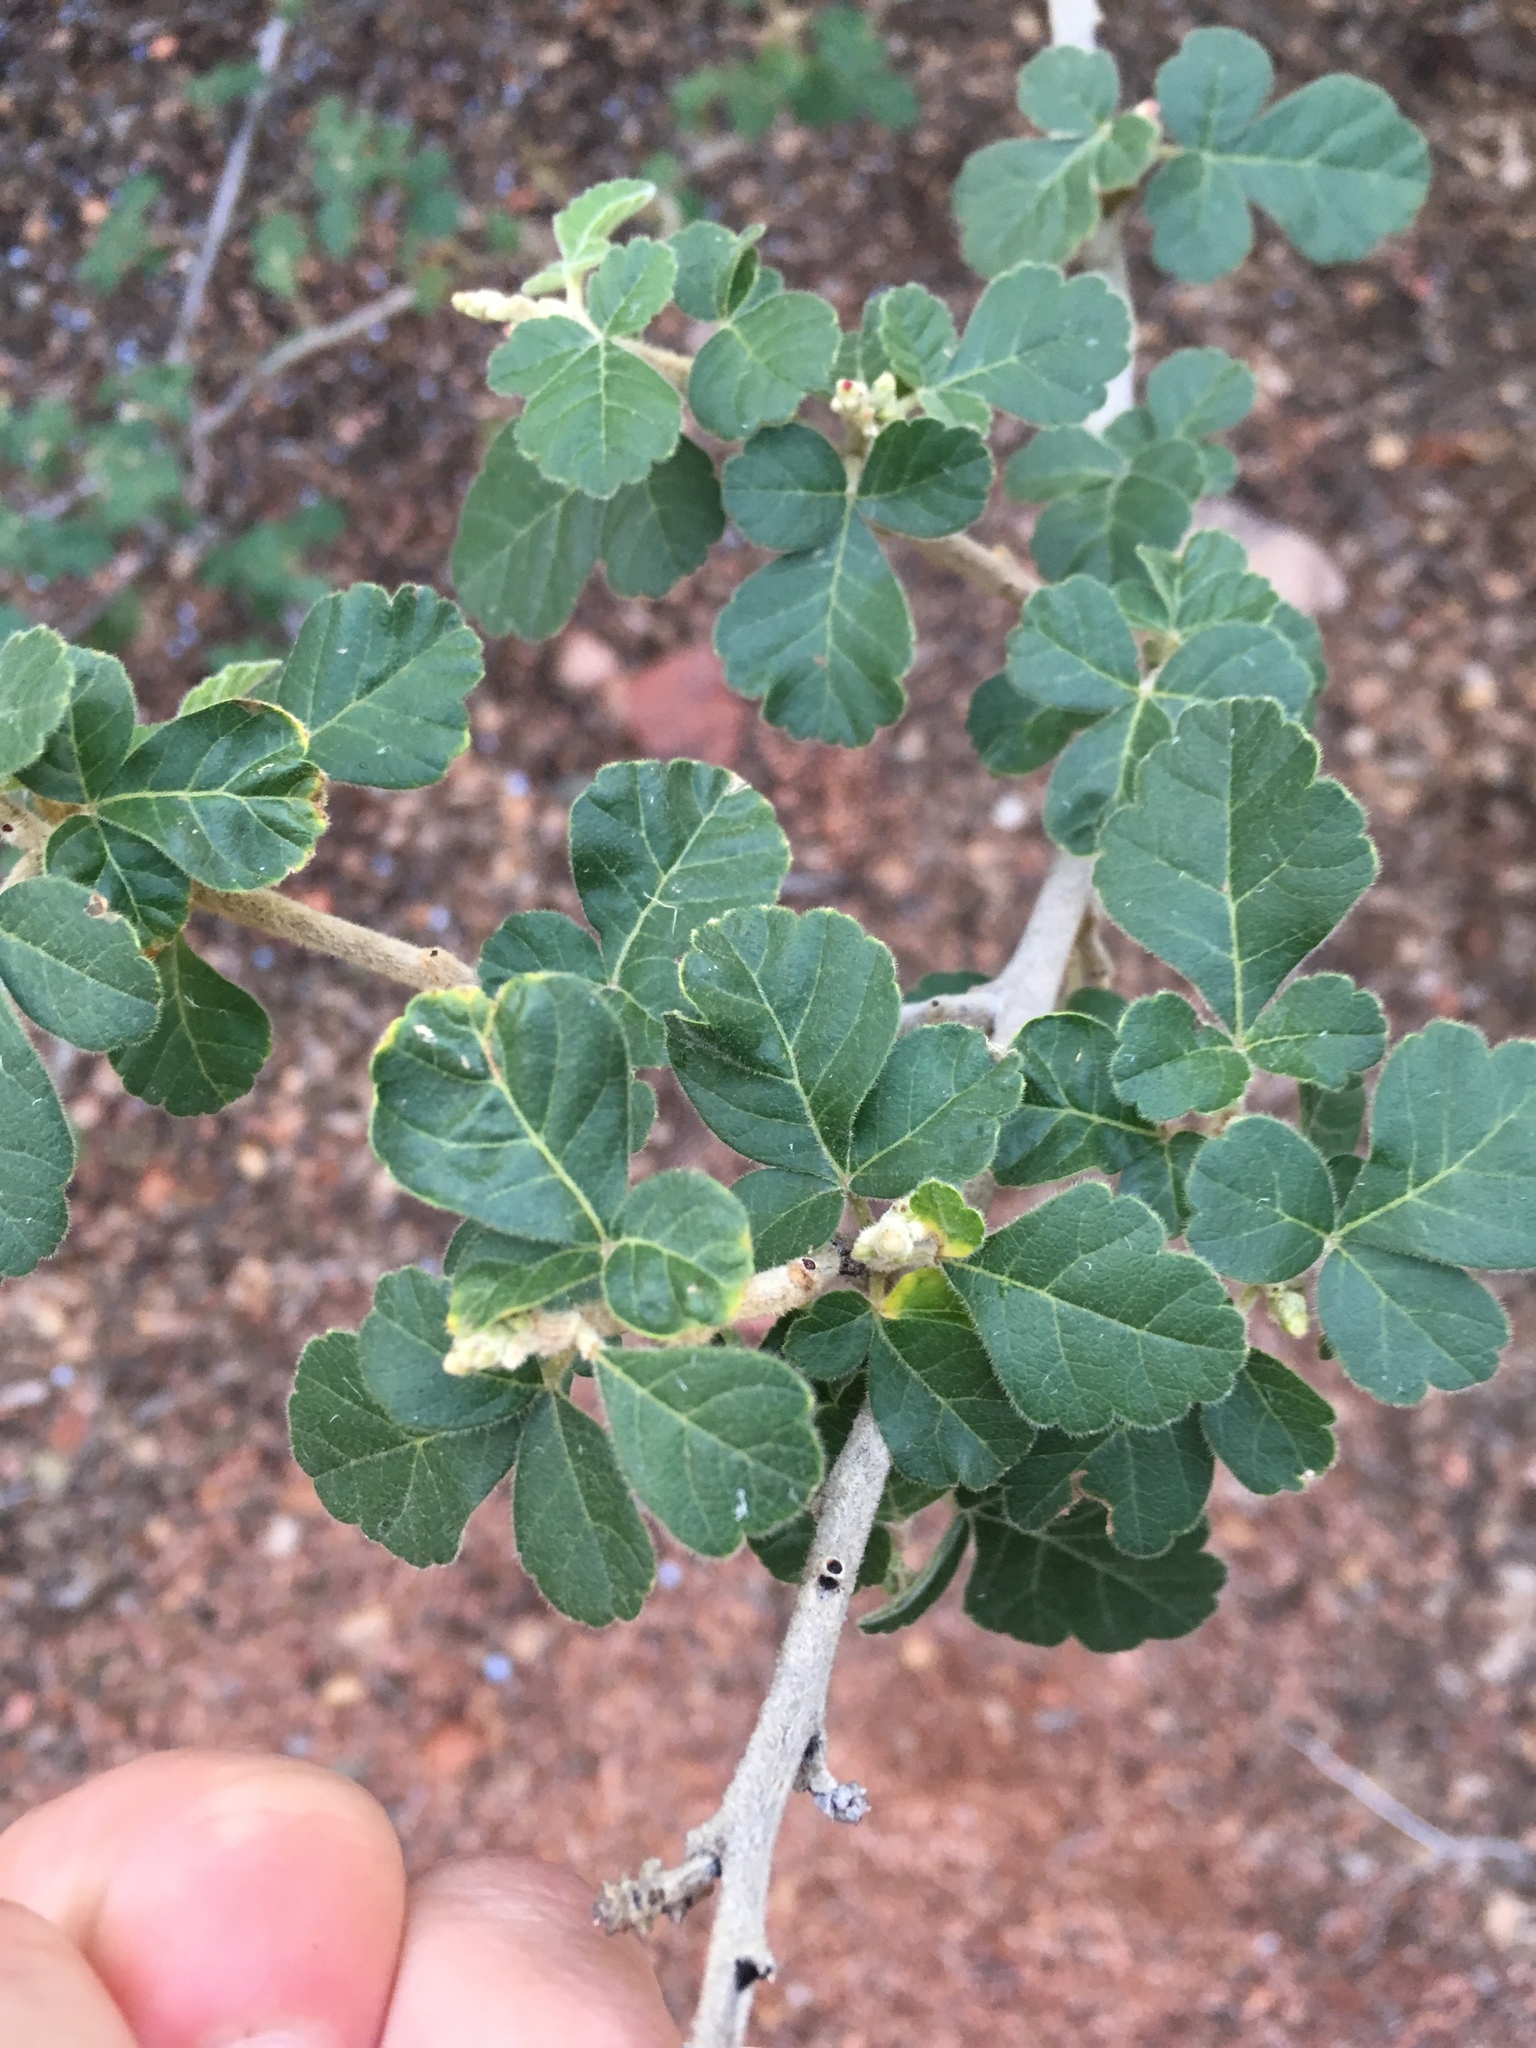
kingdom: Plantae
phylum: Tracheophyta
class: Magnoliopsida
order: Sapindales
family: Anacardiaceae
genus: Rhus
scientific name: Rhus aromatica
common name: Aromatic sumac
